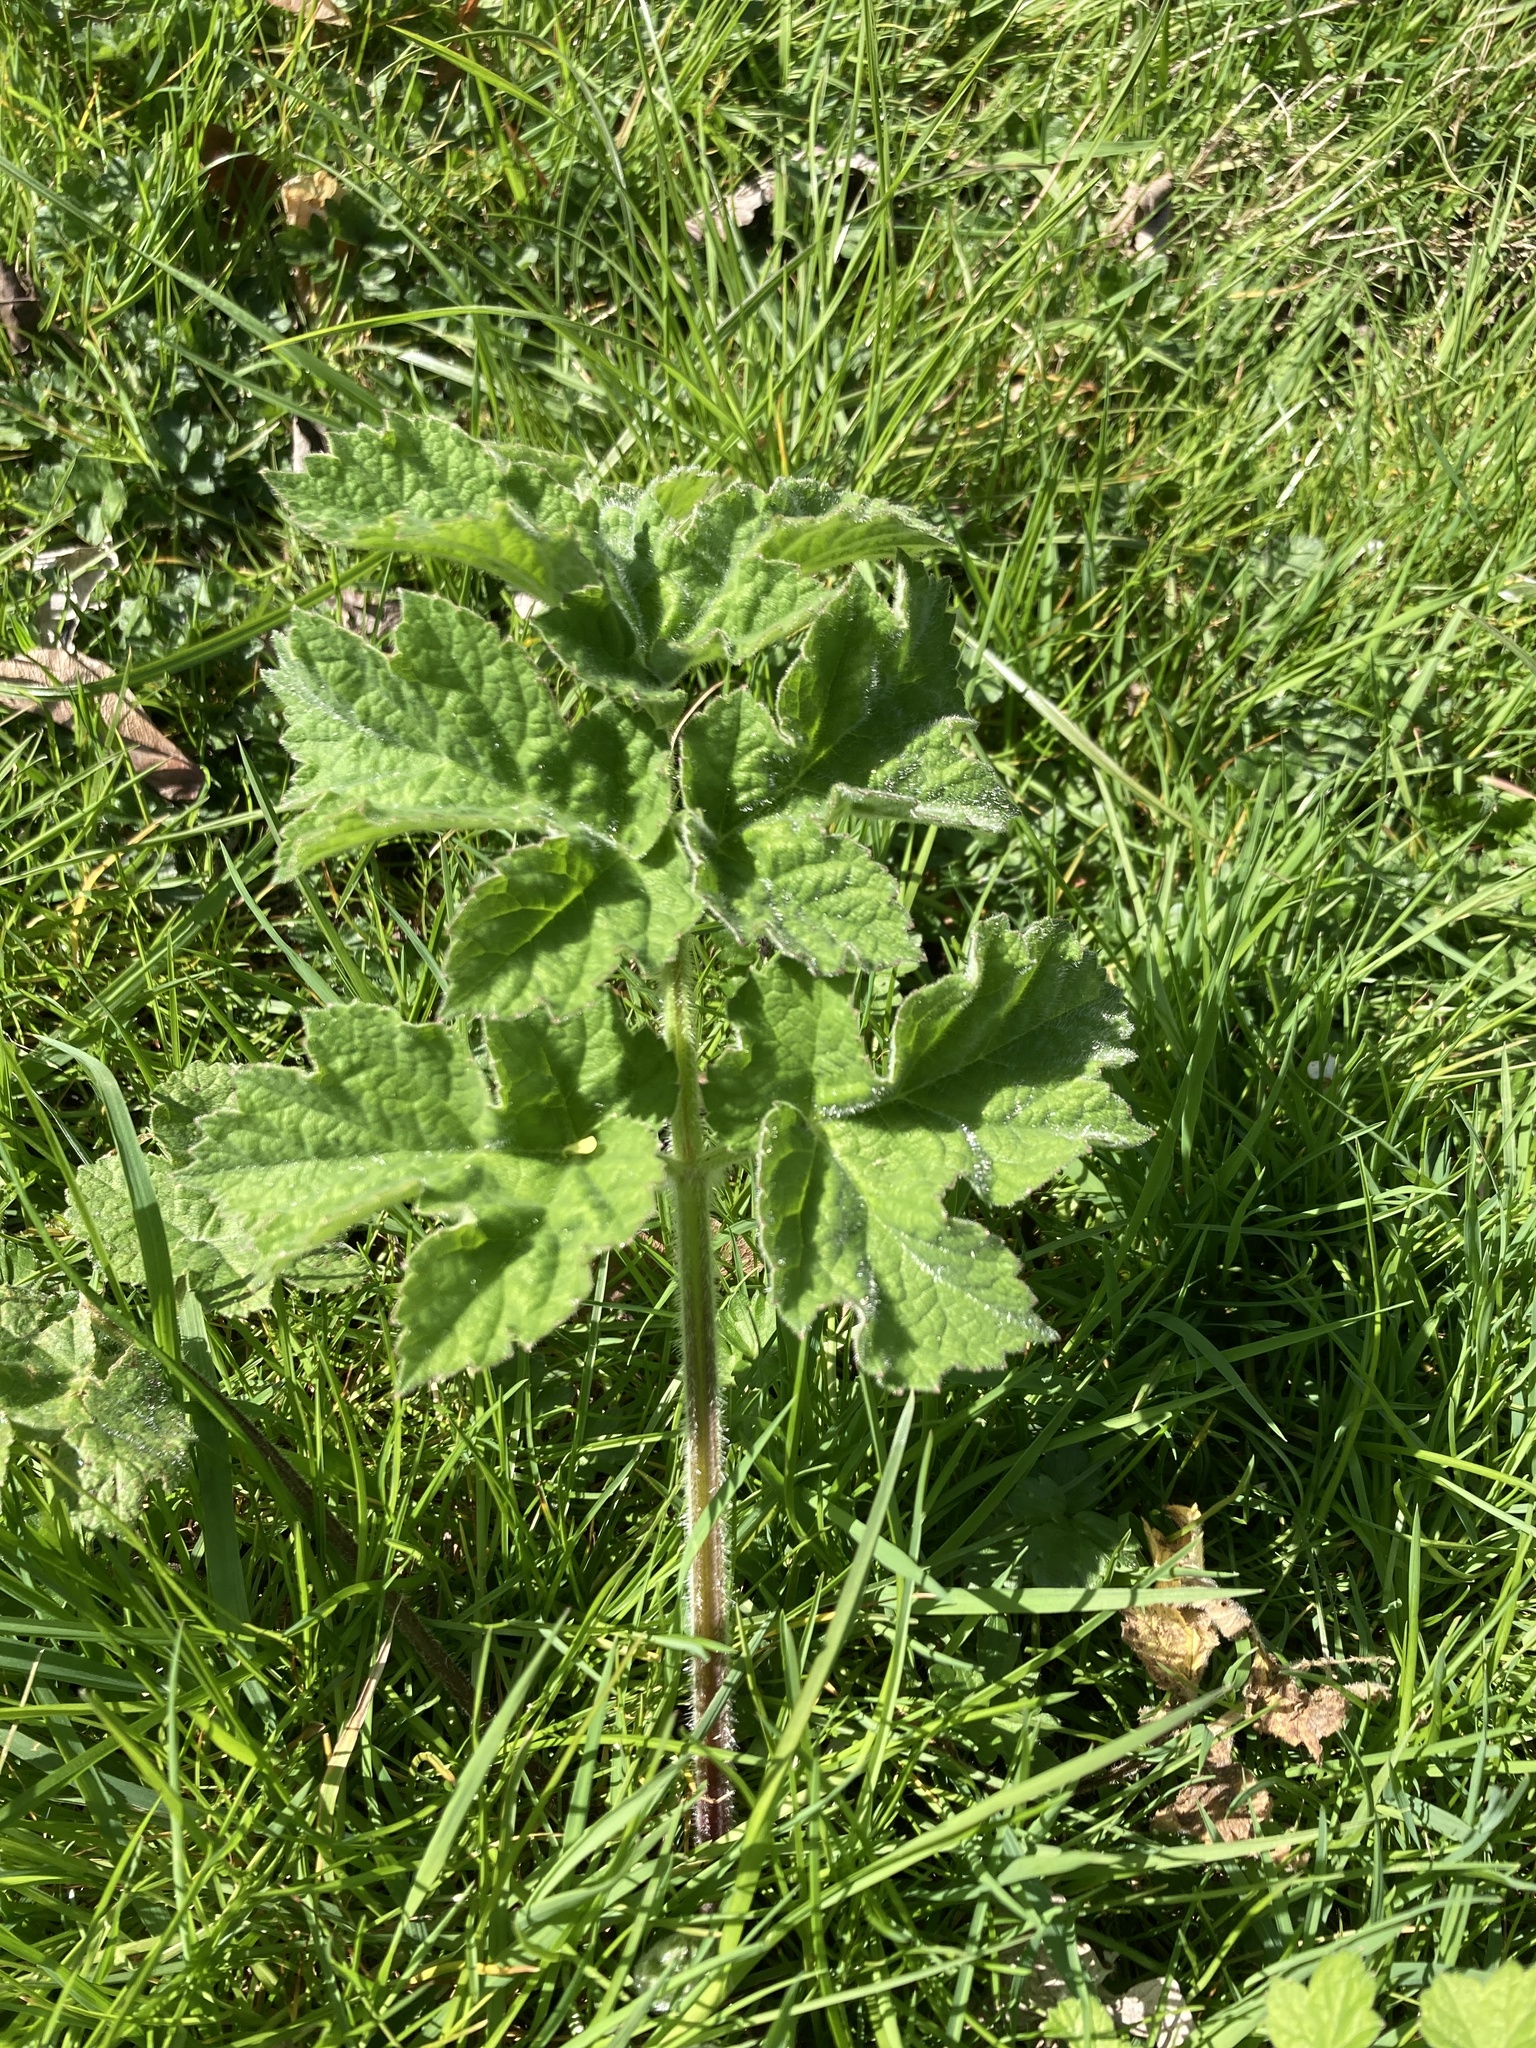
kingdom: Plantae
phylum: Tracheophyta
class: Magnoliopsida
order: Apiales
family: Apiaceae
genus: Heracleum
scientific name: Heracleum sphondylium
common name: Hogweed
